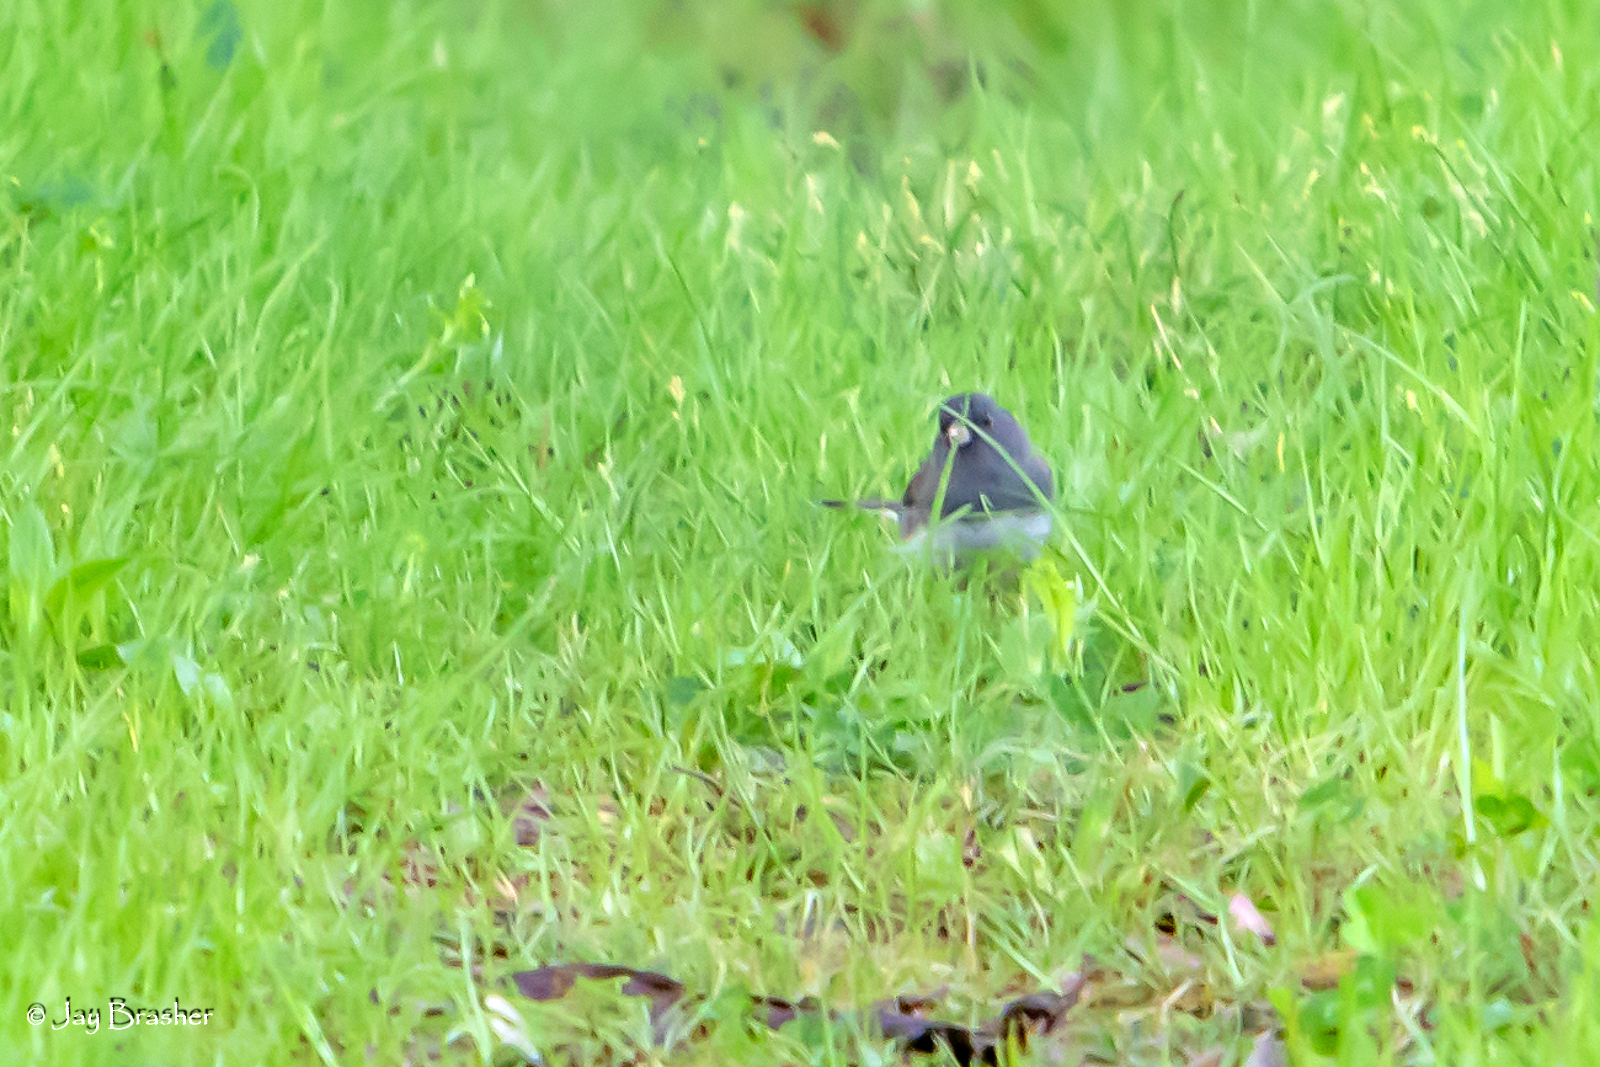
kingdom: Animalia
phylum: Chordata
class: Aves
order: Passeriformes
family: Passerellidae
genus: Junco
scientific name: Junco hyemalis
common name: Dark-eyed junco
